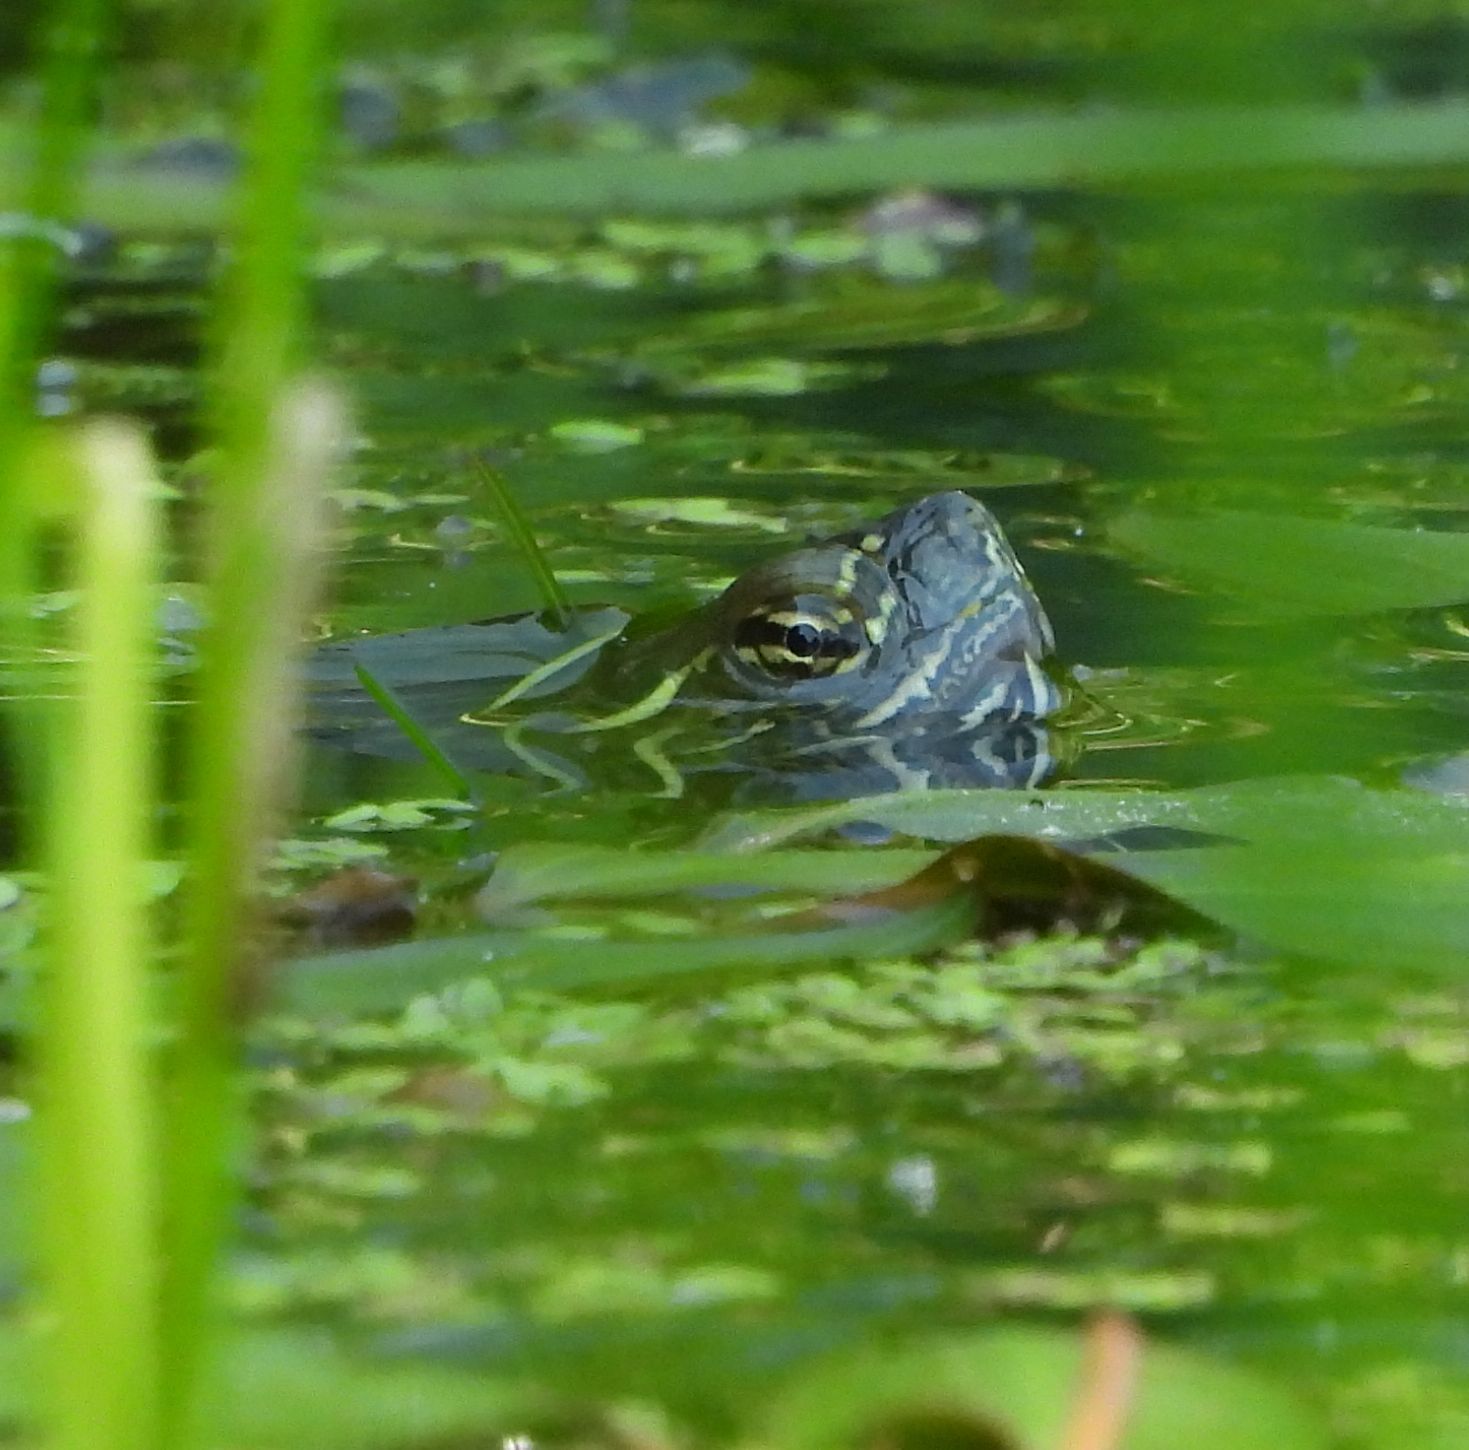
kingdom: Animalia
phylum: Chordata
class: Testudines
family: Emydidae
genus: Chrysemys
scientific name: Chrysemys picta
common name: Painted turtle
